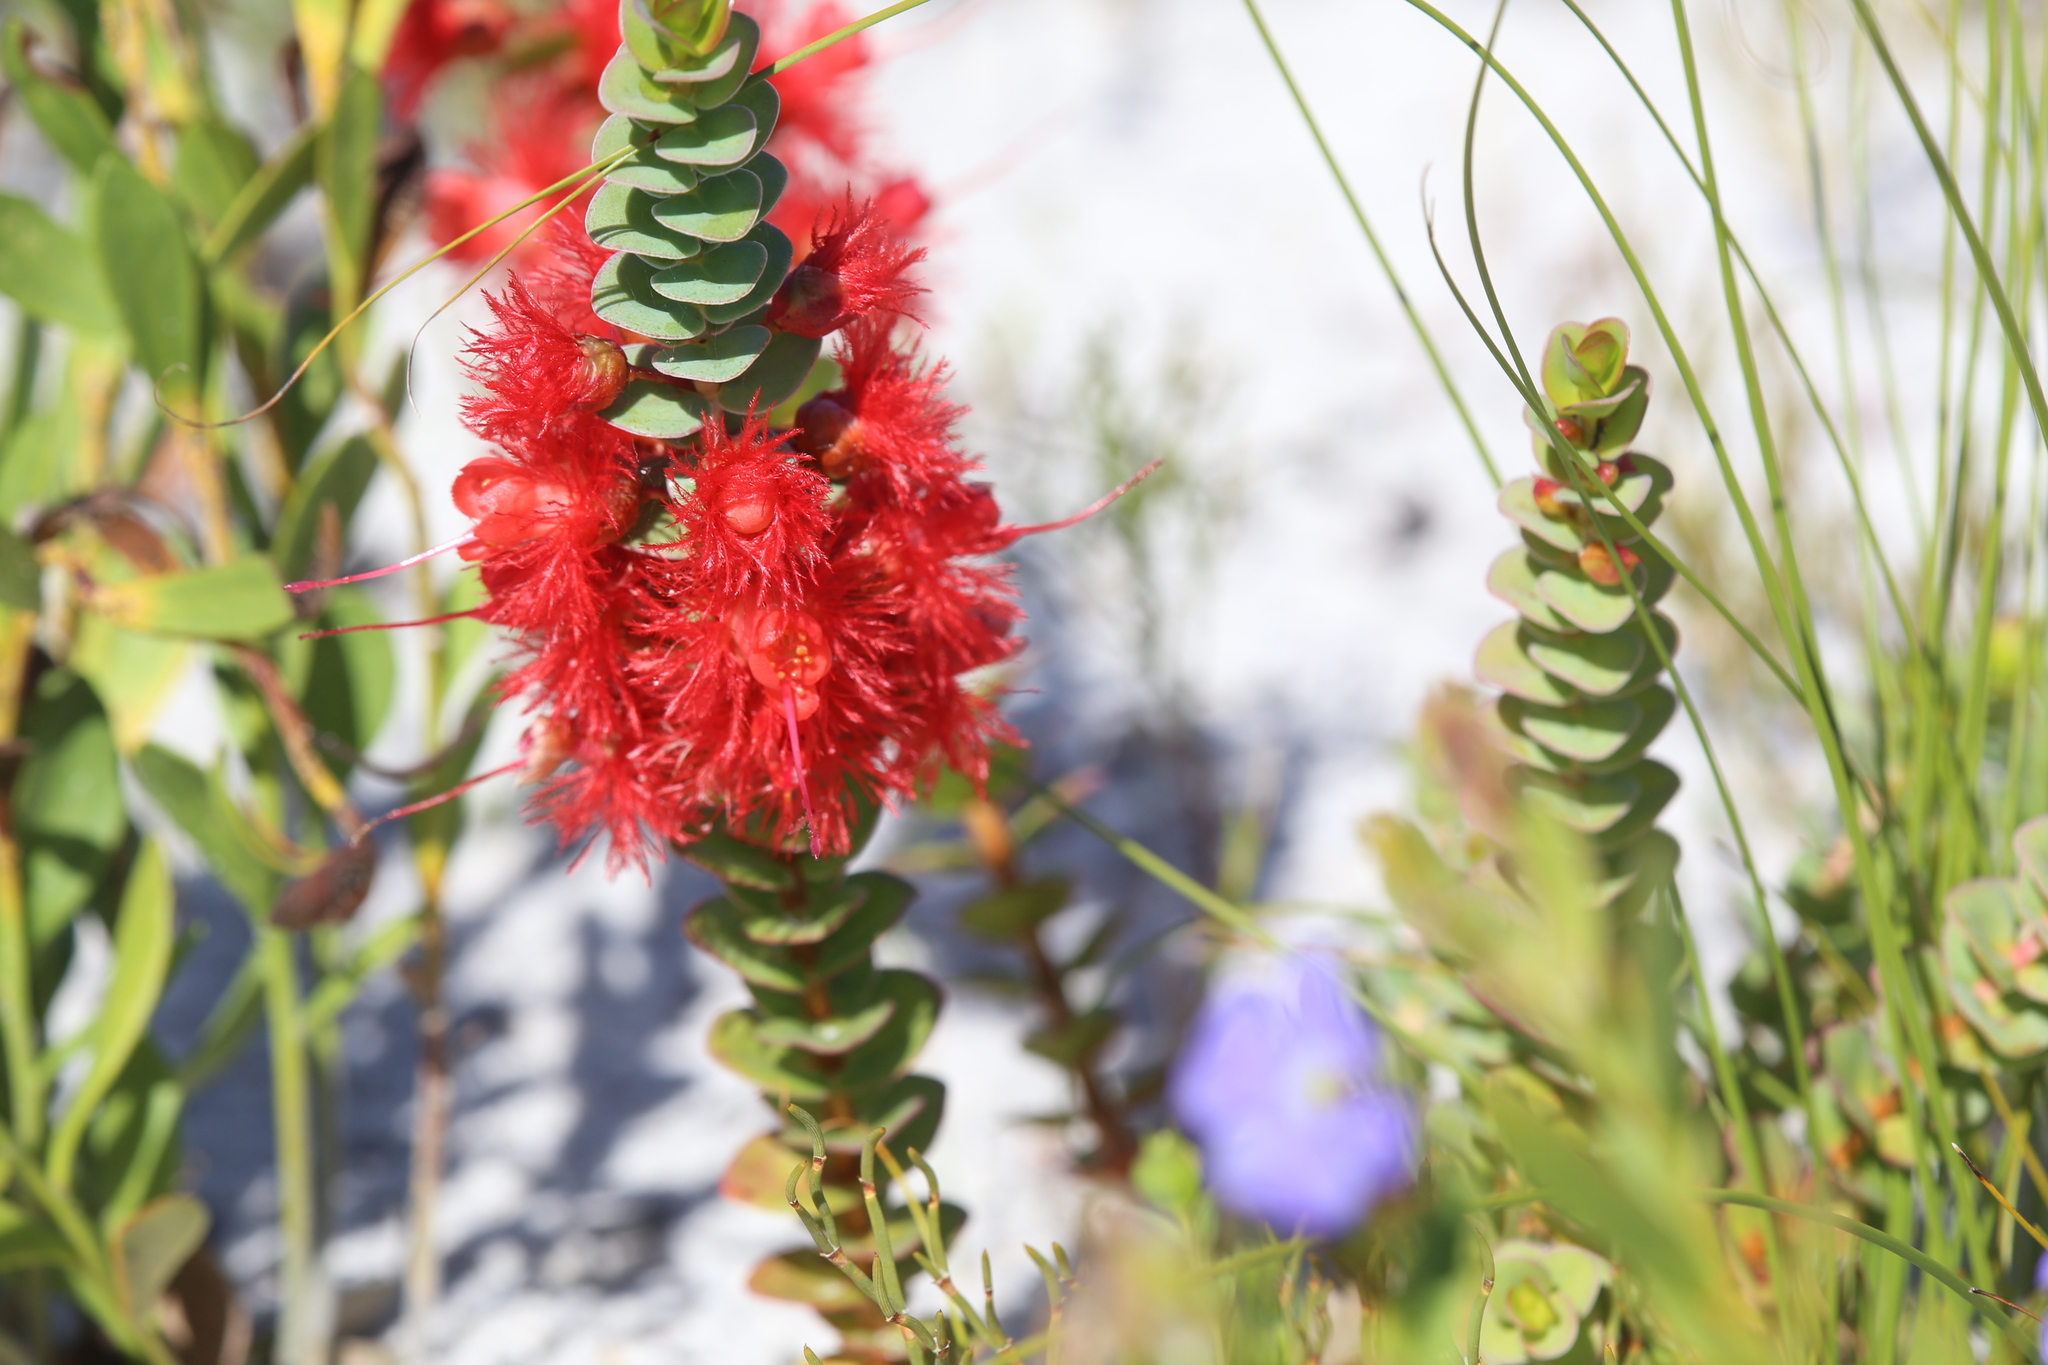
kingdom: Plantae
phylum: Tracheophyta
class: Magnoliopsida
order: Myrtales
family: Myrtaceae
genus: Verticordia
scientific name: Verticordia grandis
